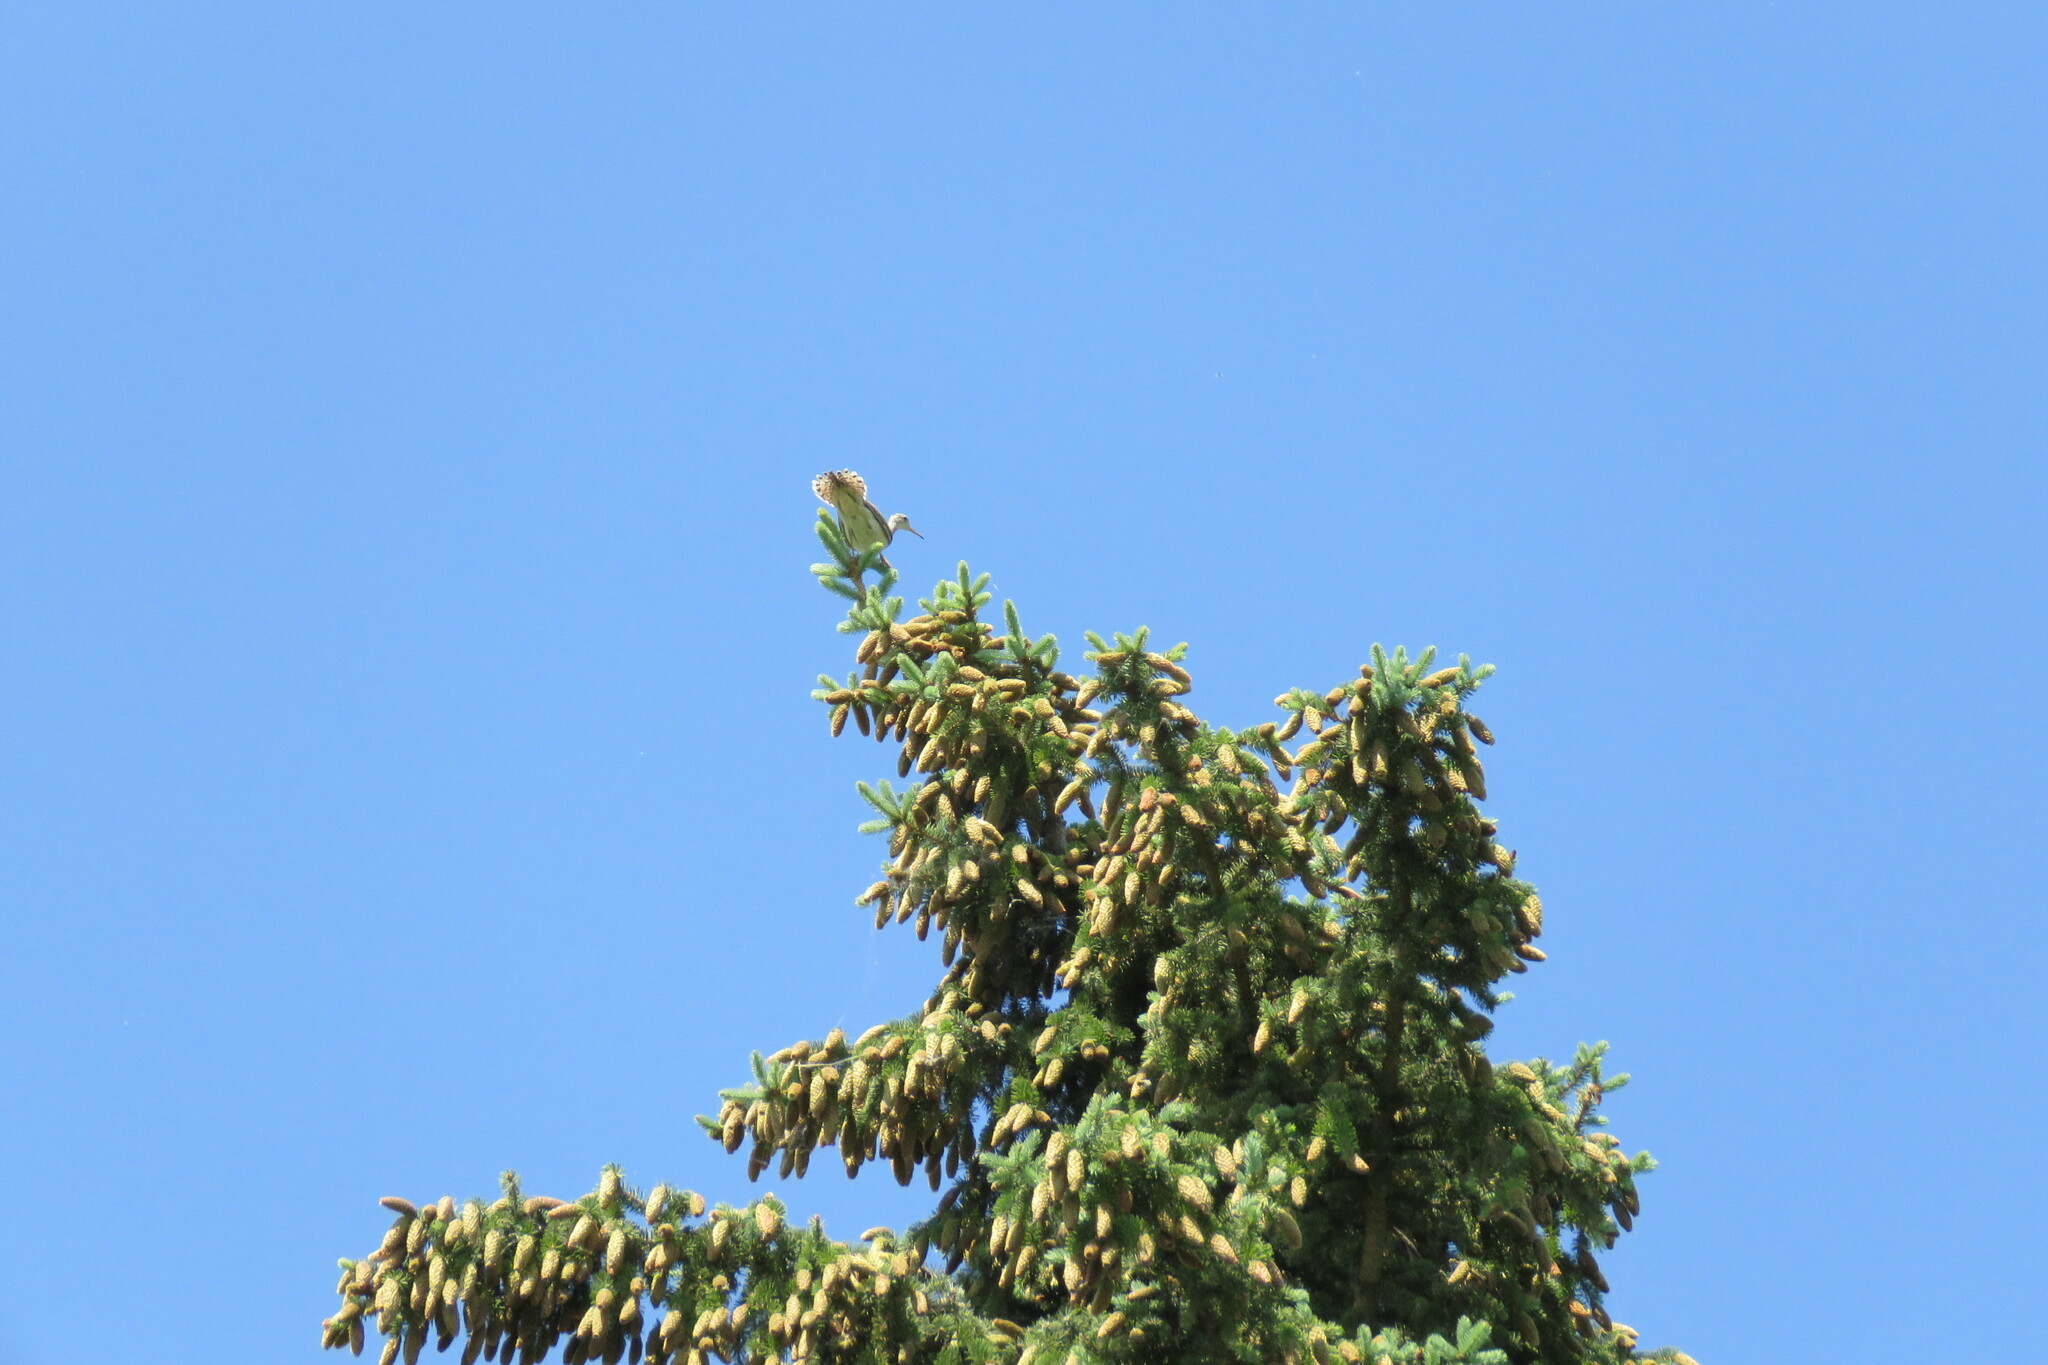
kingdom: Animalia
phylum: Chordata
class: Aves
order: Charadriiformes
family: Scolopacidae
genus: Bartramia
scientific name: Bartramia longicauda
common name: Upland sandpiper
